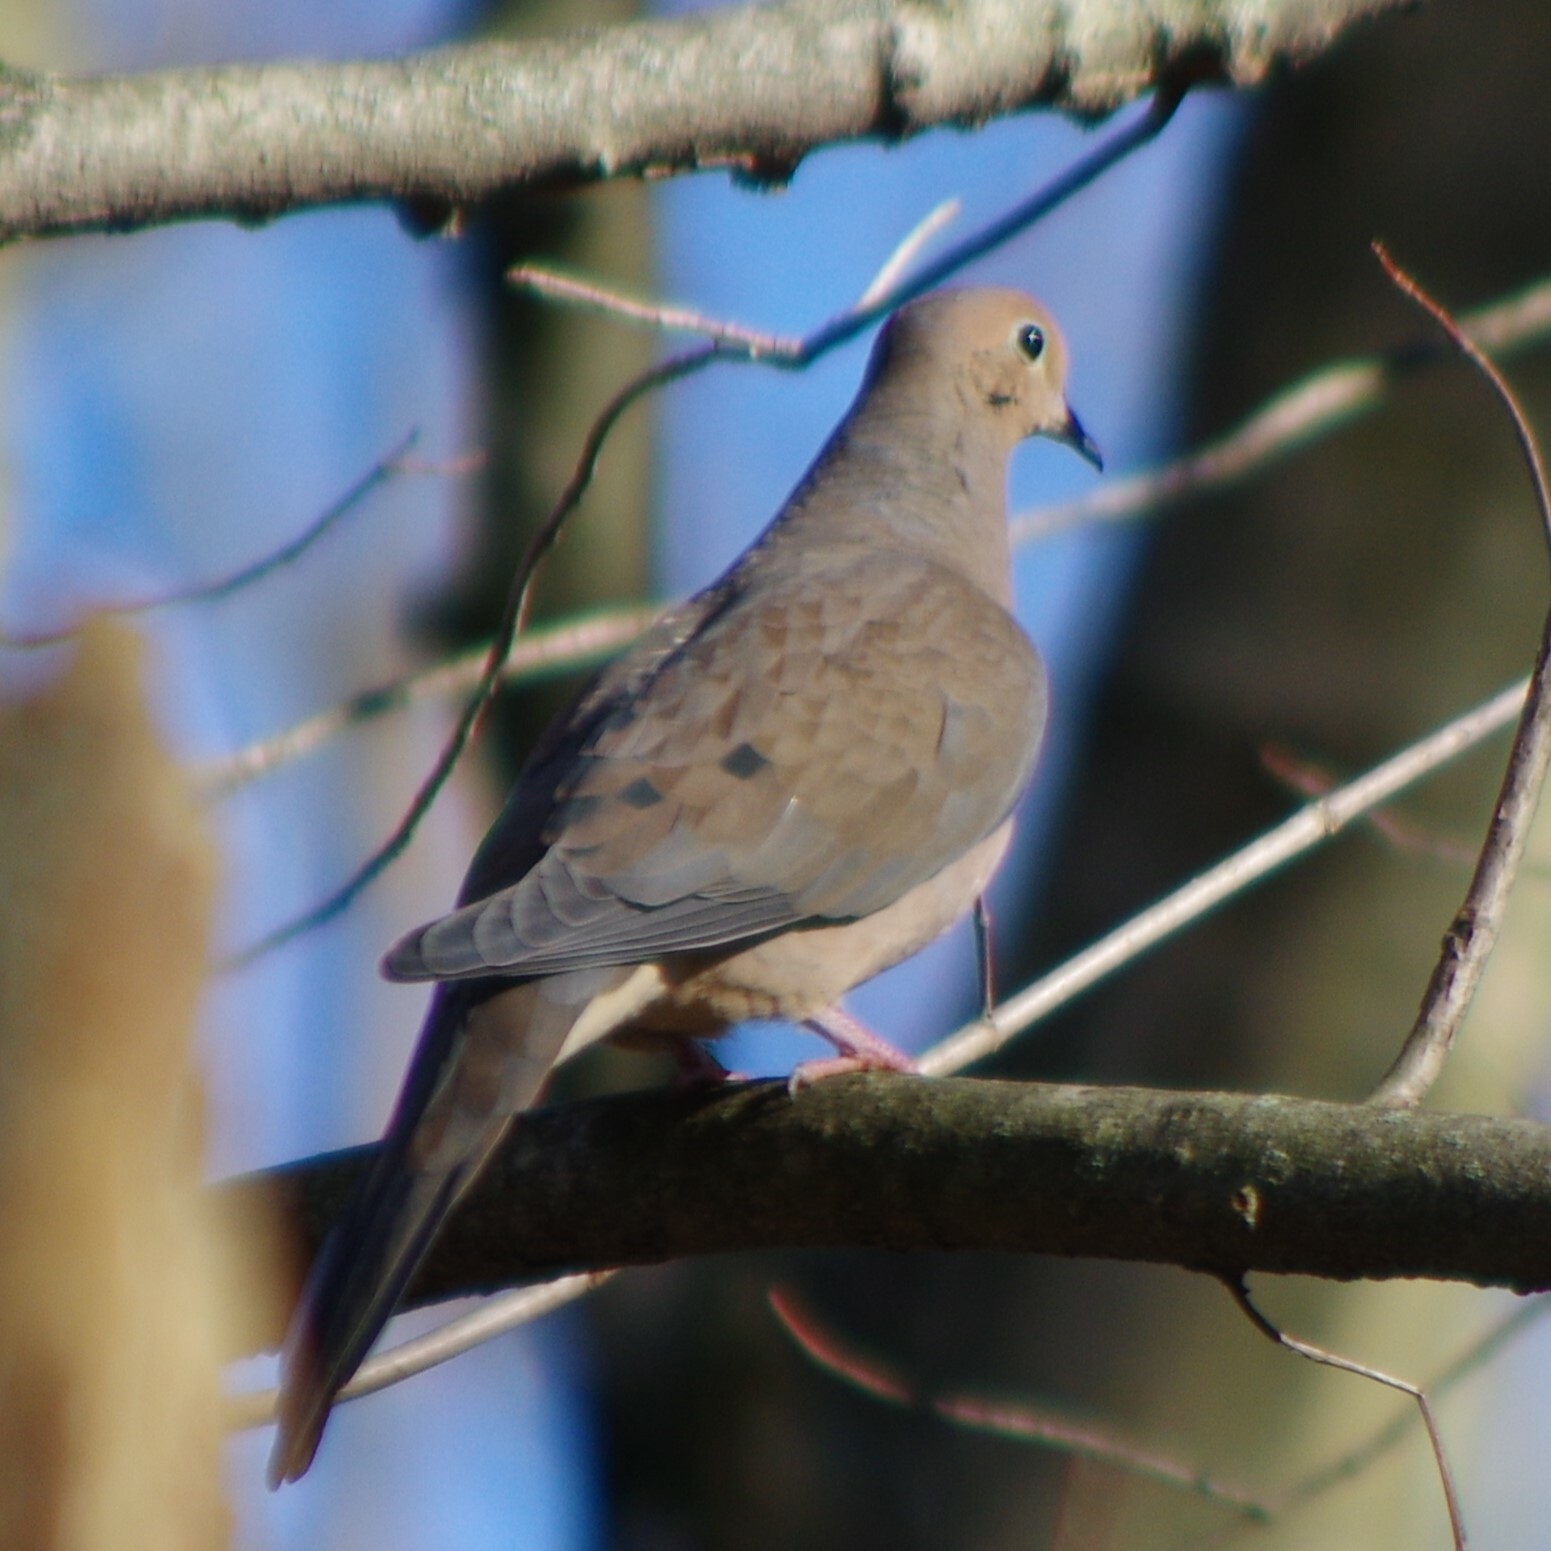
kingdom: Animalia
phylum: Chordata
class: Aves
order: Columbiformes
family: Columbidae
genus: Zenaida
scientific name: Zenaida macroura
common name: Mourning dove
